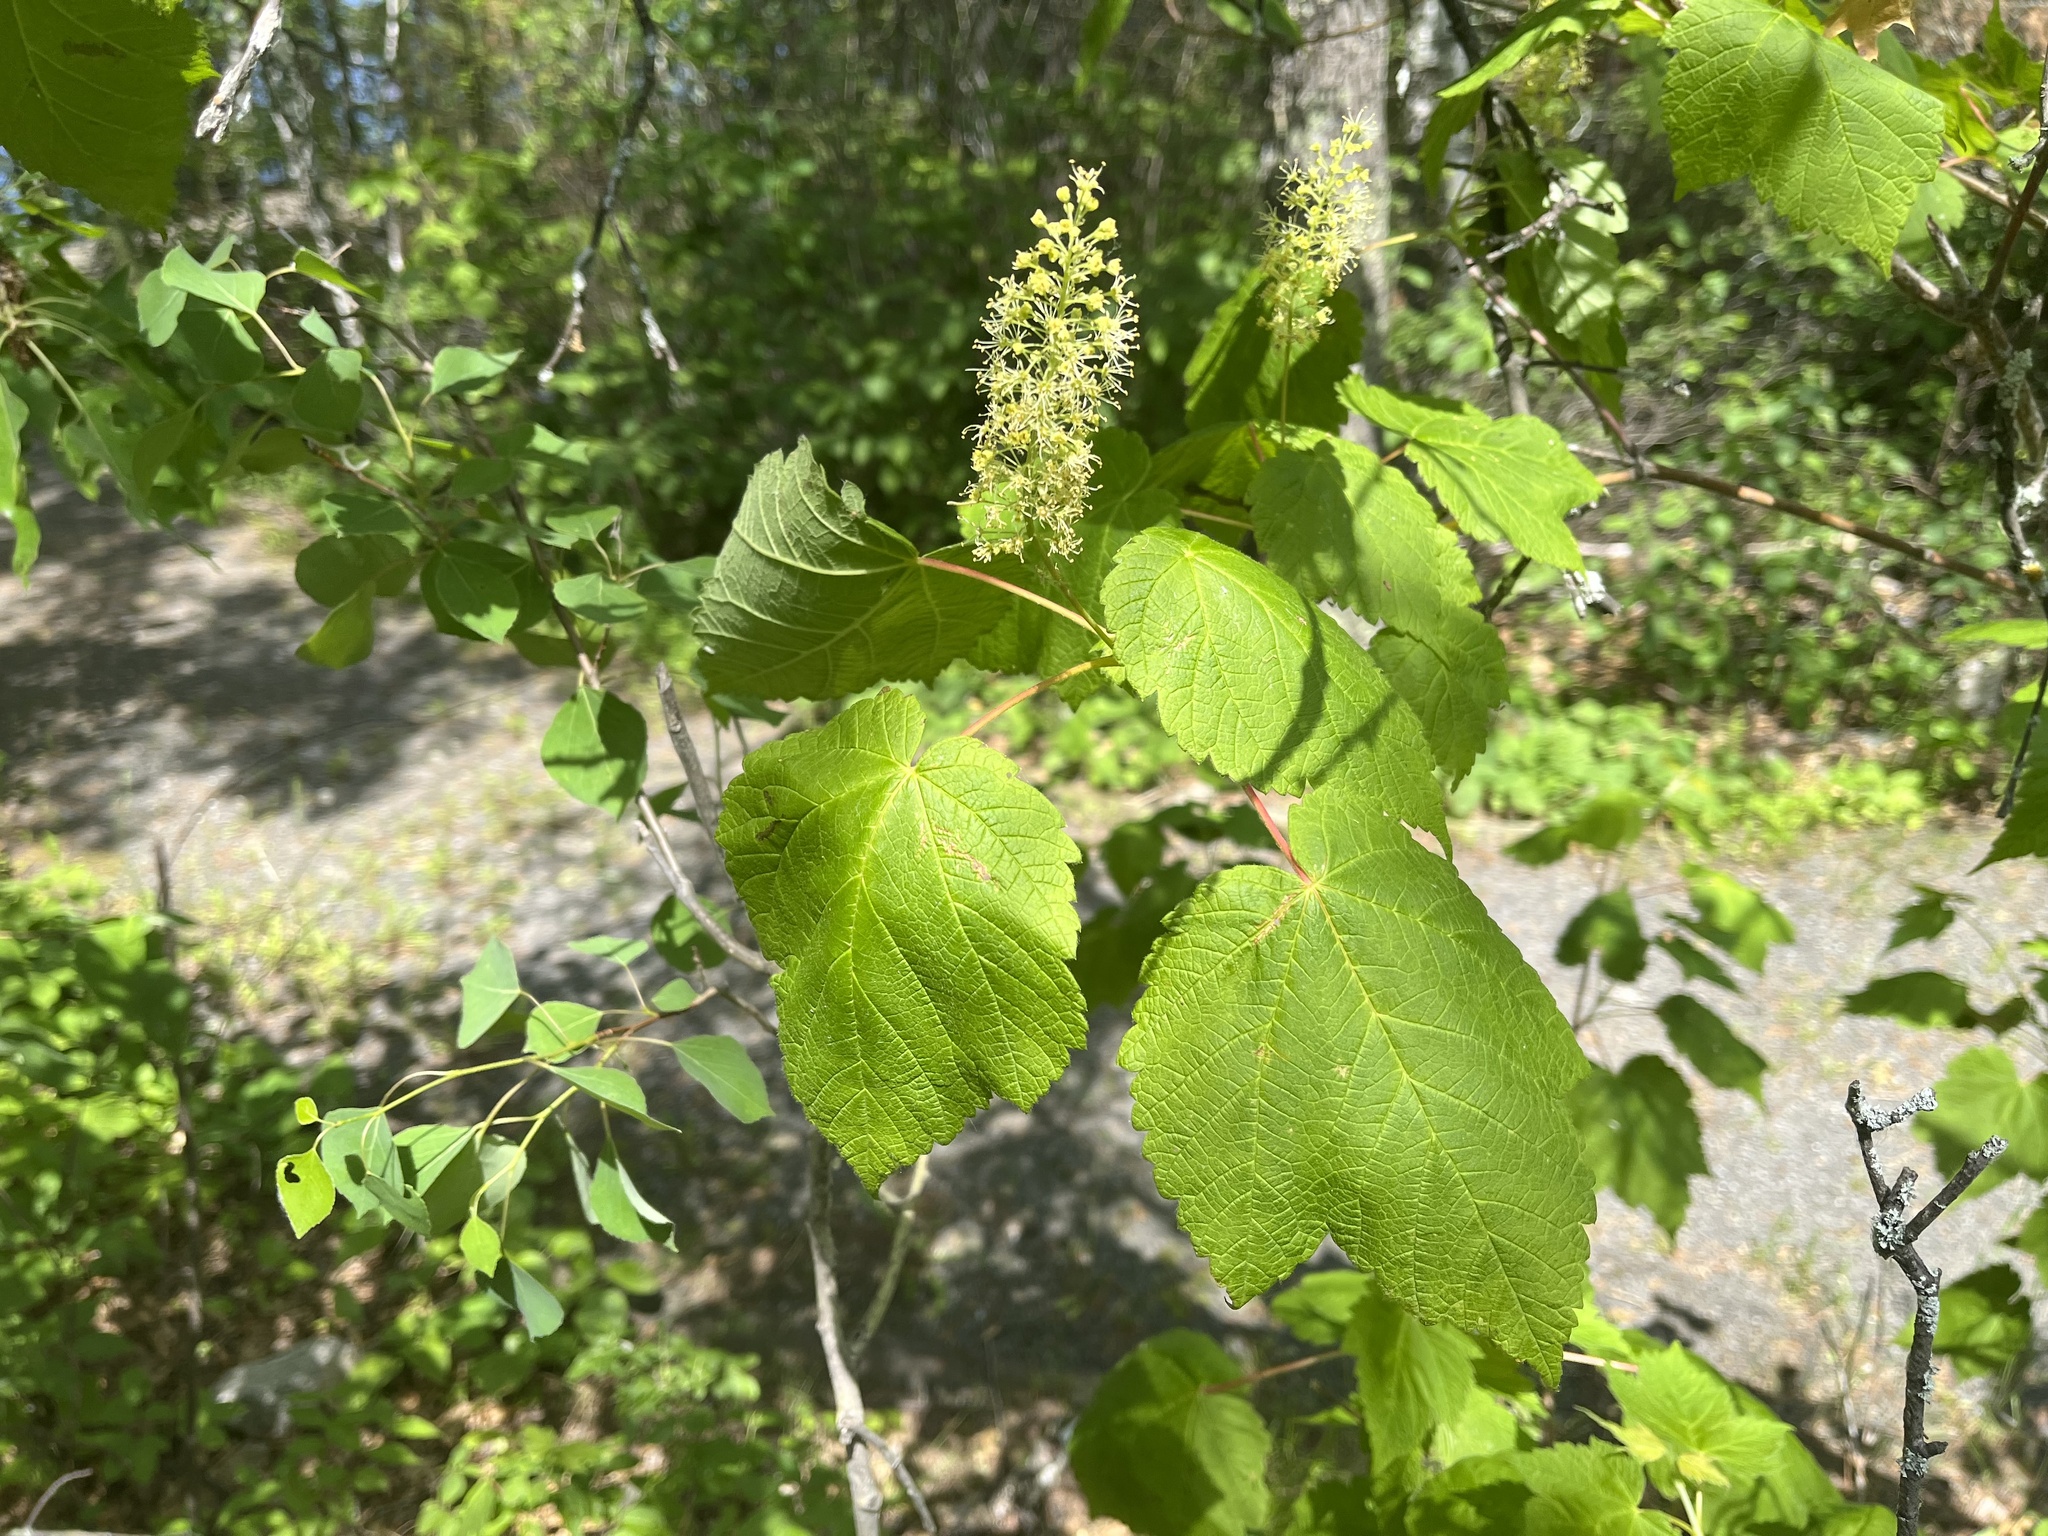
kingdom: Plantae
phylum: Tracheophyta
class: Magnoliopsida
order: Sapindales
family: Sapindaceae
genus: Acer
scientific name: Acer spicatum
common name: Mountain maple
